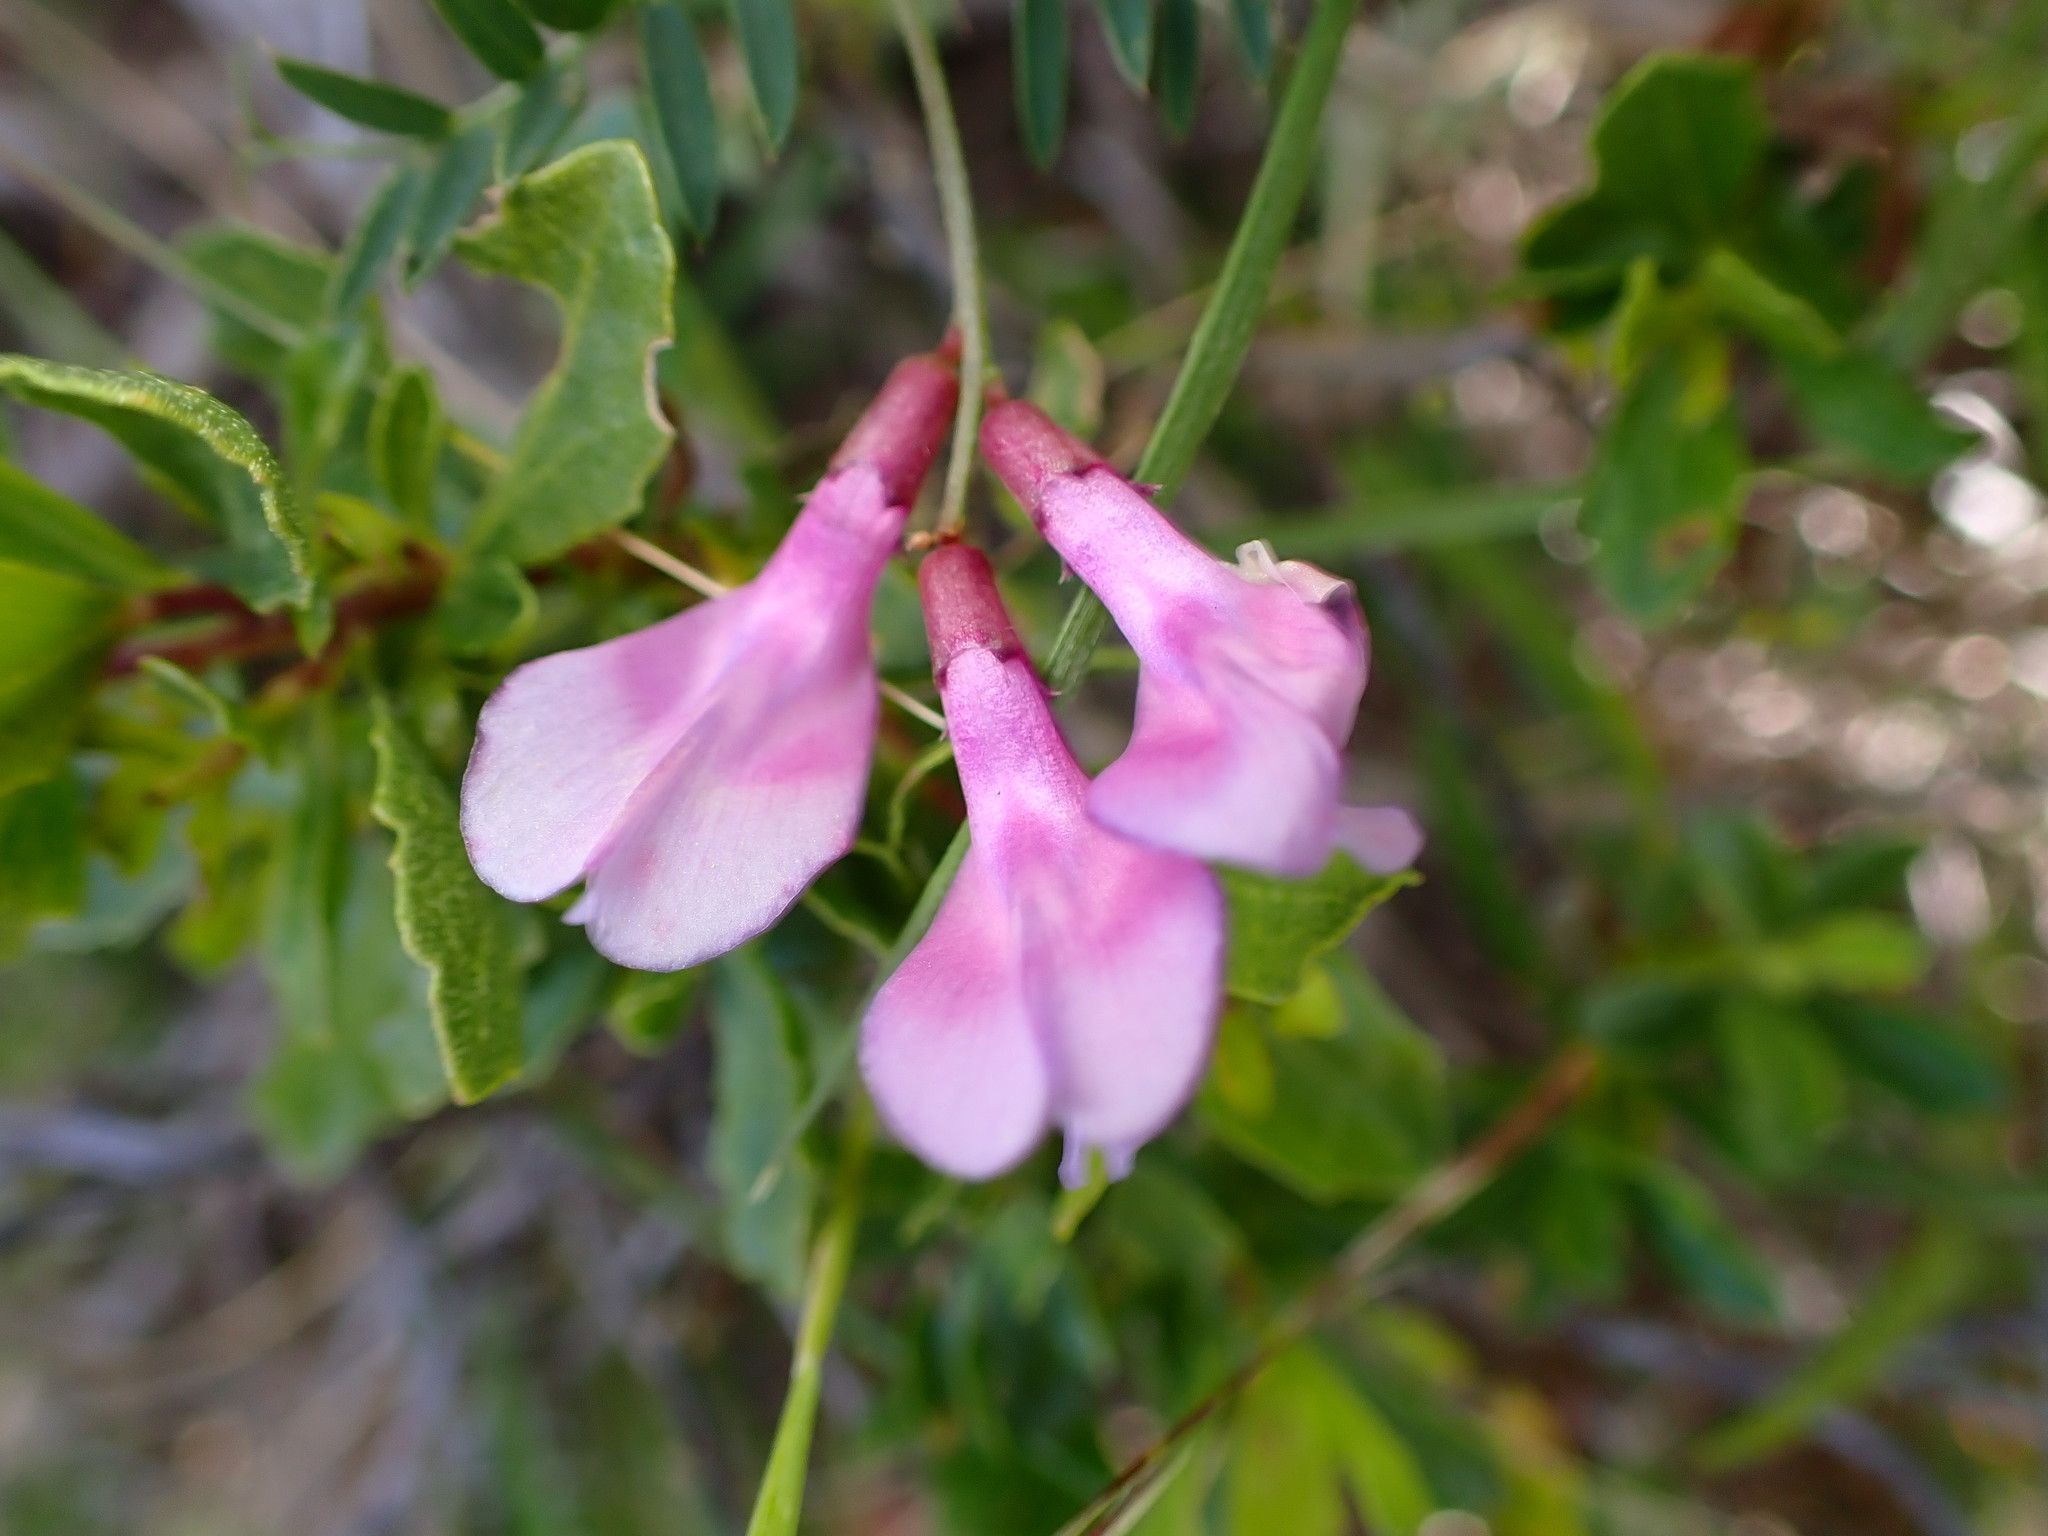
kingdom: Plantae
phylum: Tracheophyta
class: Magnoliopsida
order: Fabales
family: Fabaceae
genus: Vicia
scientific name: Vicia americana
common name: American vetch
